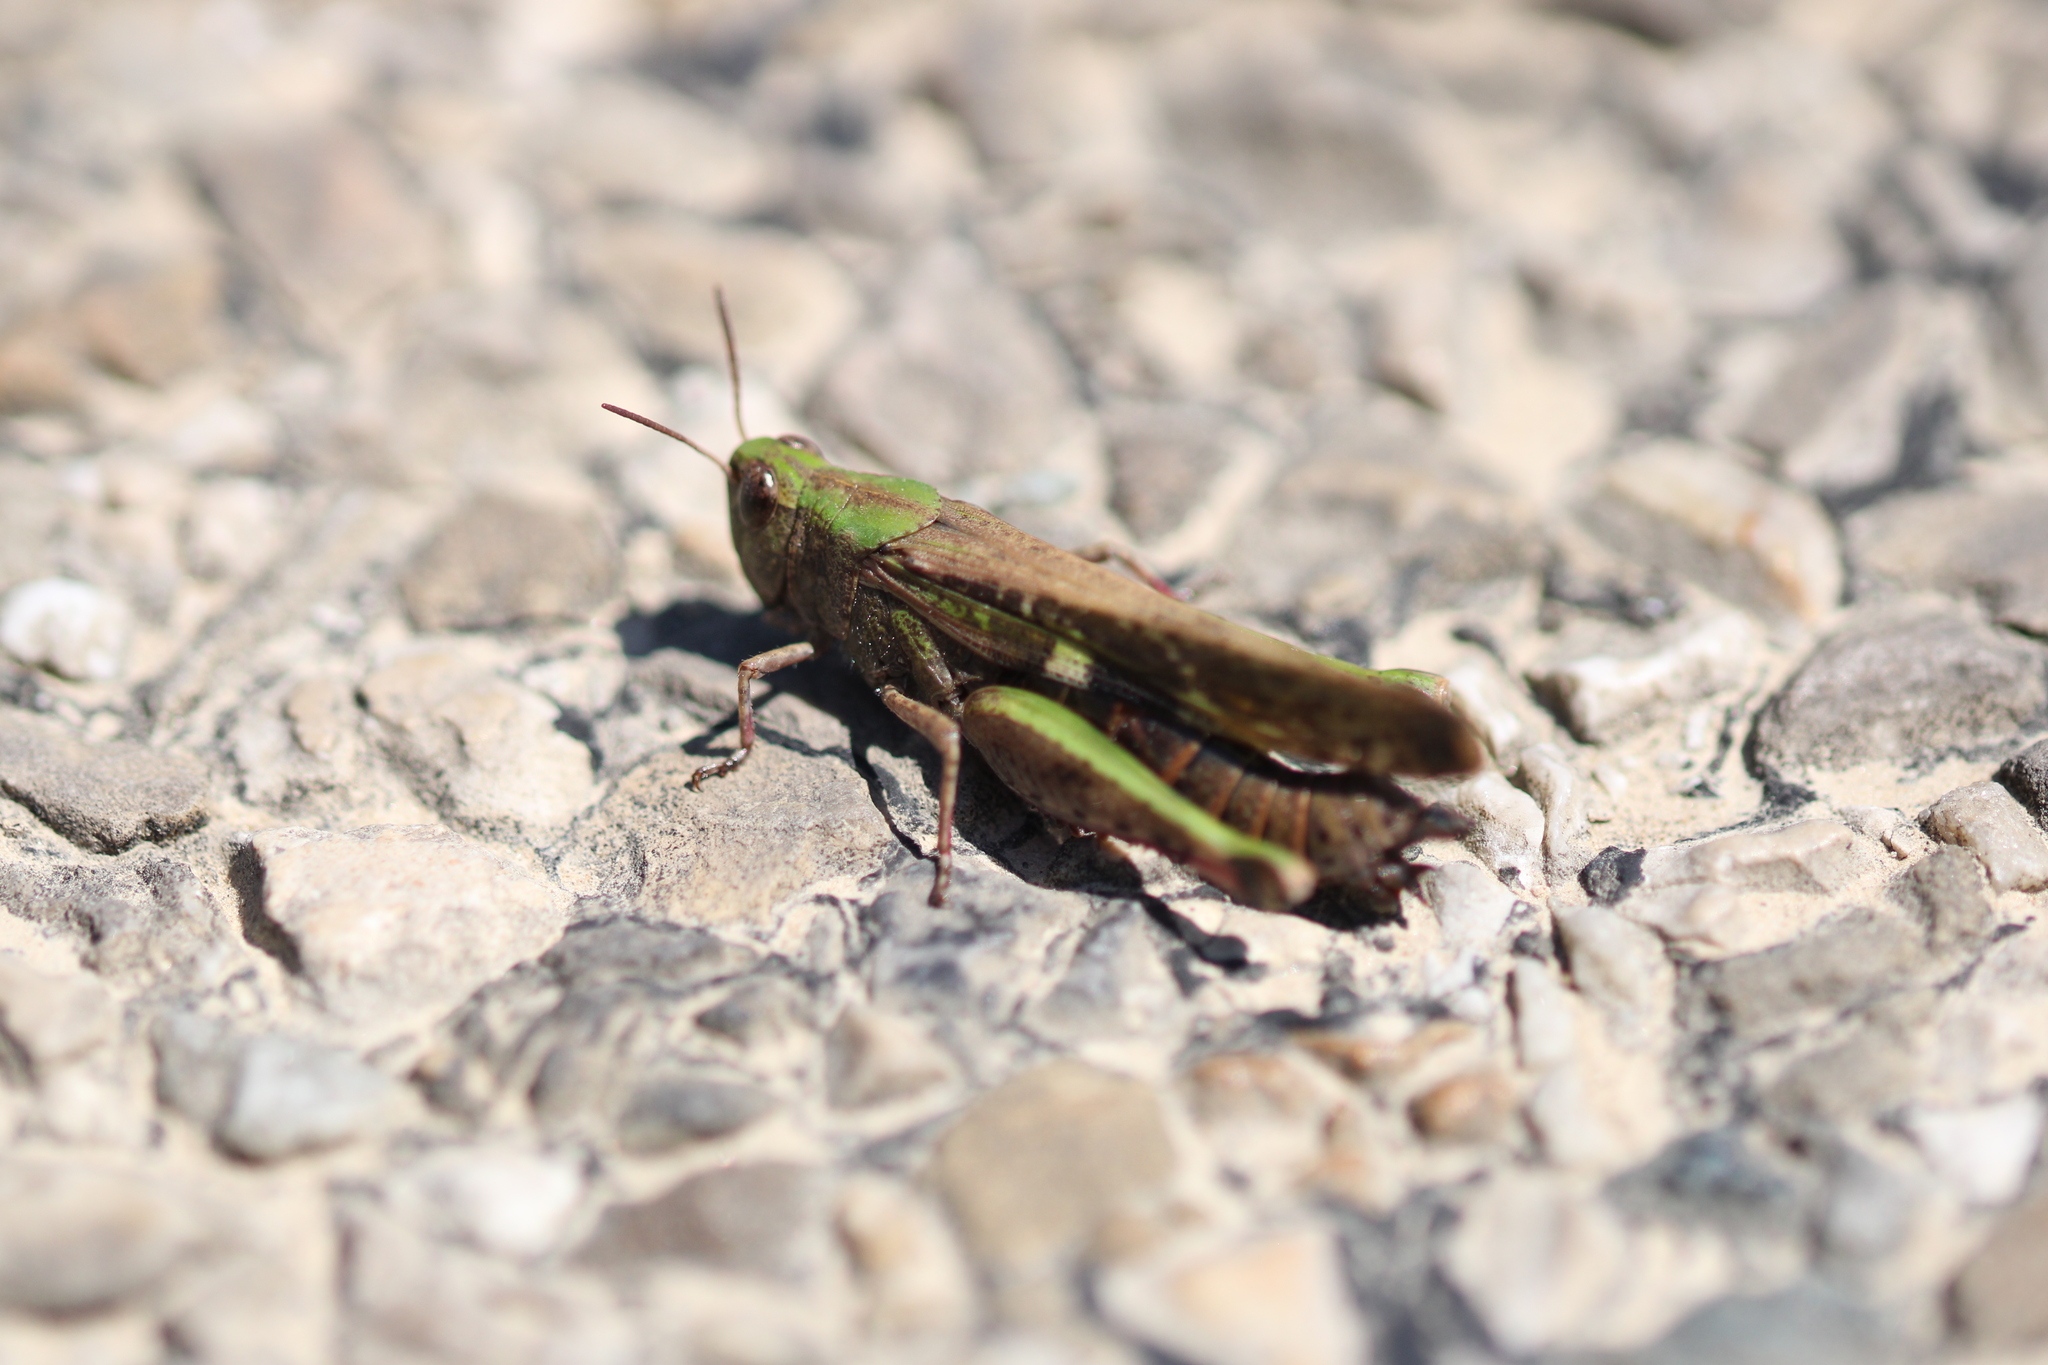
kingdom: Animalia
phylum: Arthropoda
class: Insecta
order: Orthoptera
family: Acrididae
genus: Aiolopus
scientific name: Aiolopus strepens
